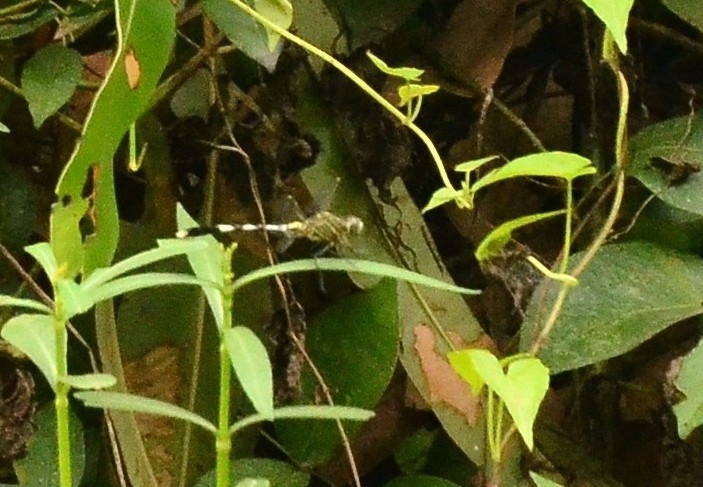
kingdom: Animalia
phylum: Arthropoda
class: Insecta
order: Odonata
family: Libellulidae
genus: Orthetrum
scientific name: Orthetrum sabina
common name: Slender skimmer
